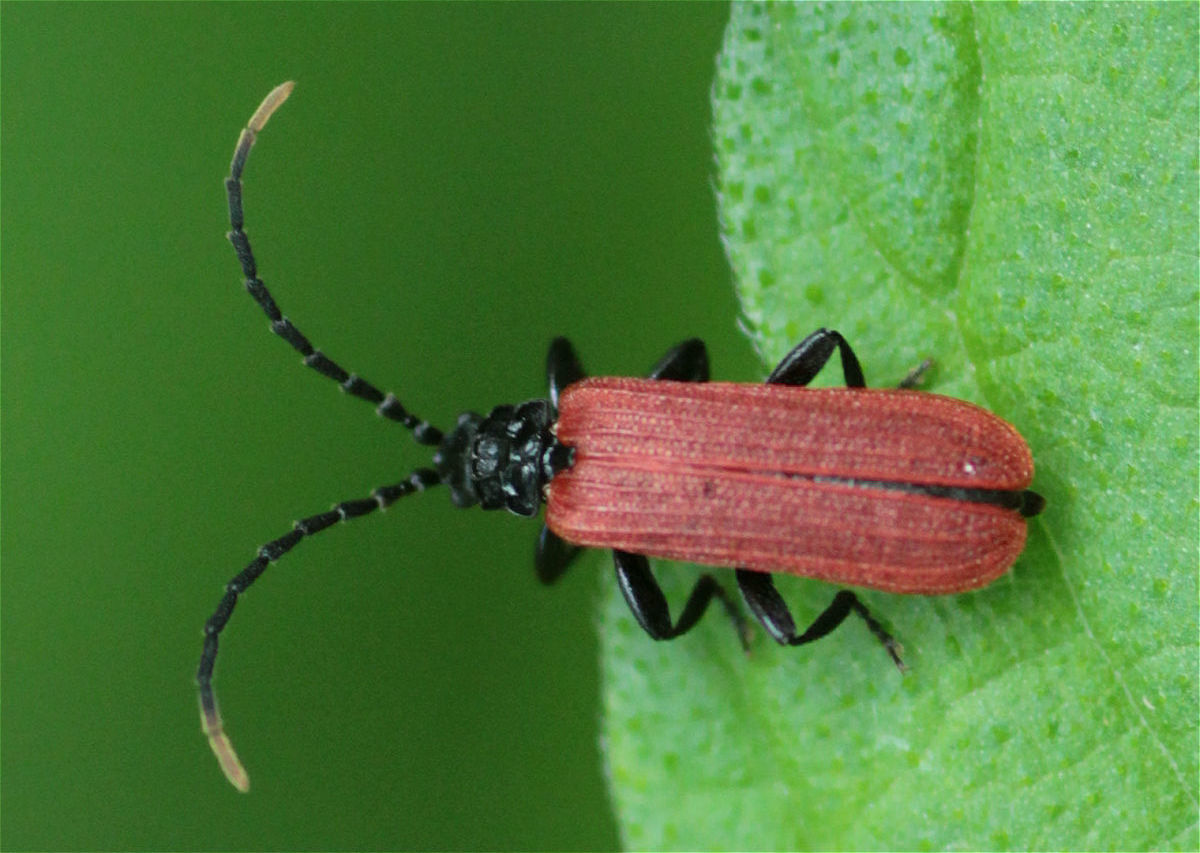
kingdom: Animalia
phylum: Arthropoda
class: Insecta
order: Coleoptera
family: Lycidae
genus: Platycis
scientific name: Platycis minutus
